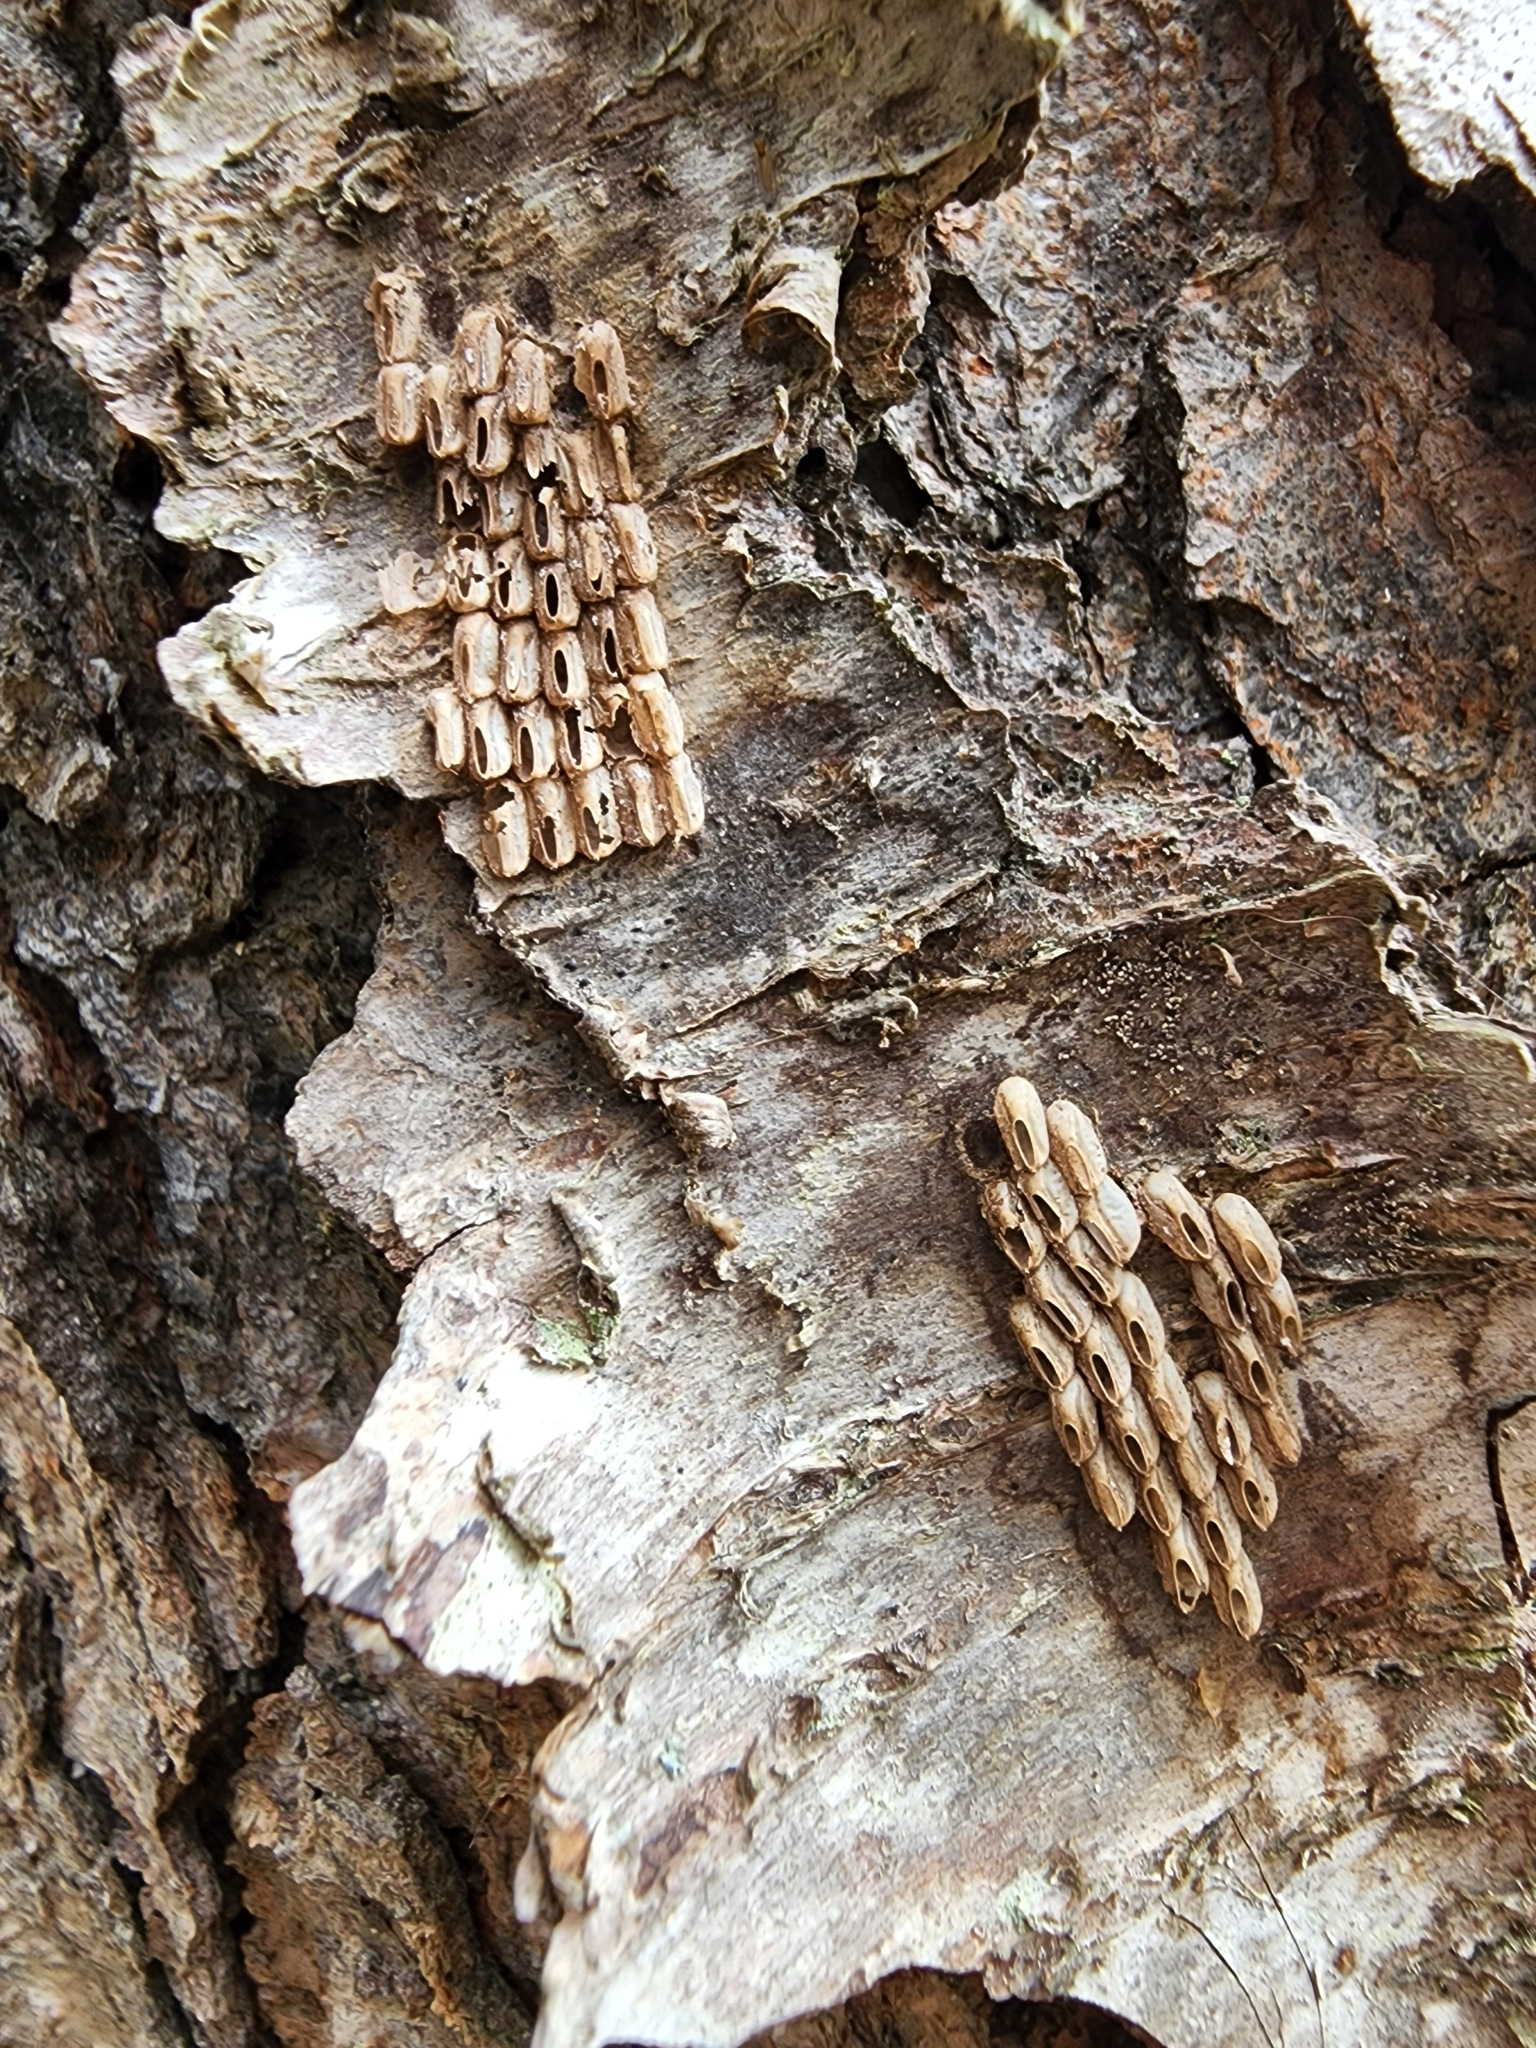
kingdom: Animalia
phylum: Arthropoda
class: Insecta
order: Hemiptera
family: Fulgoridae
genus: Lycorma
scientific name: Lycorma delicatula
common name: Spotted lanternfly
